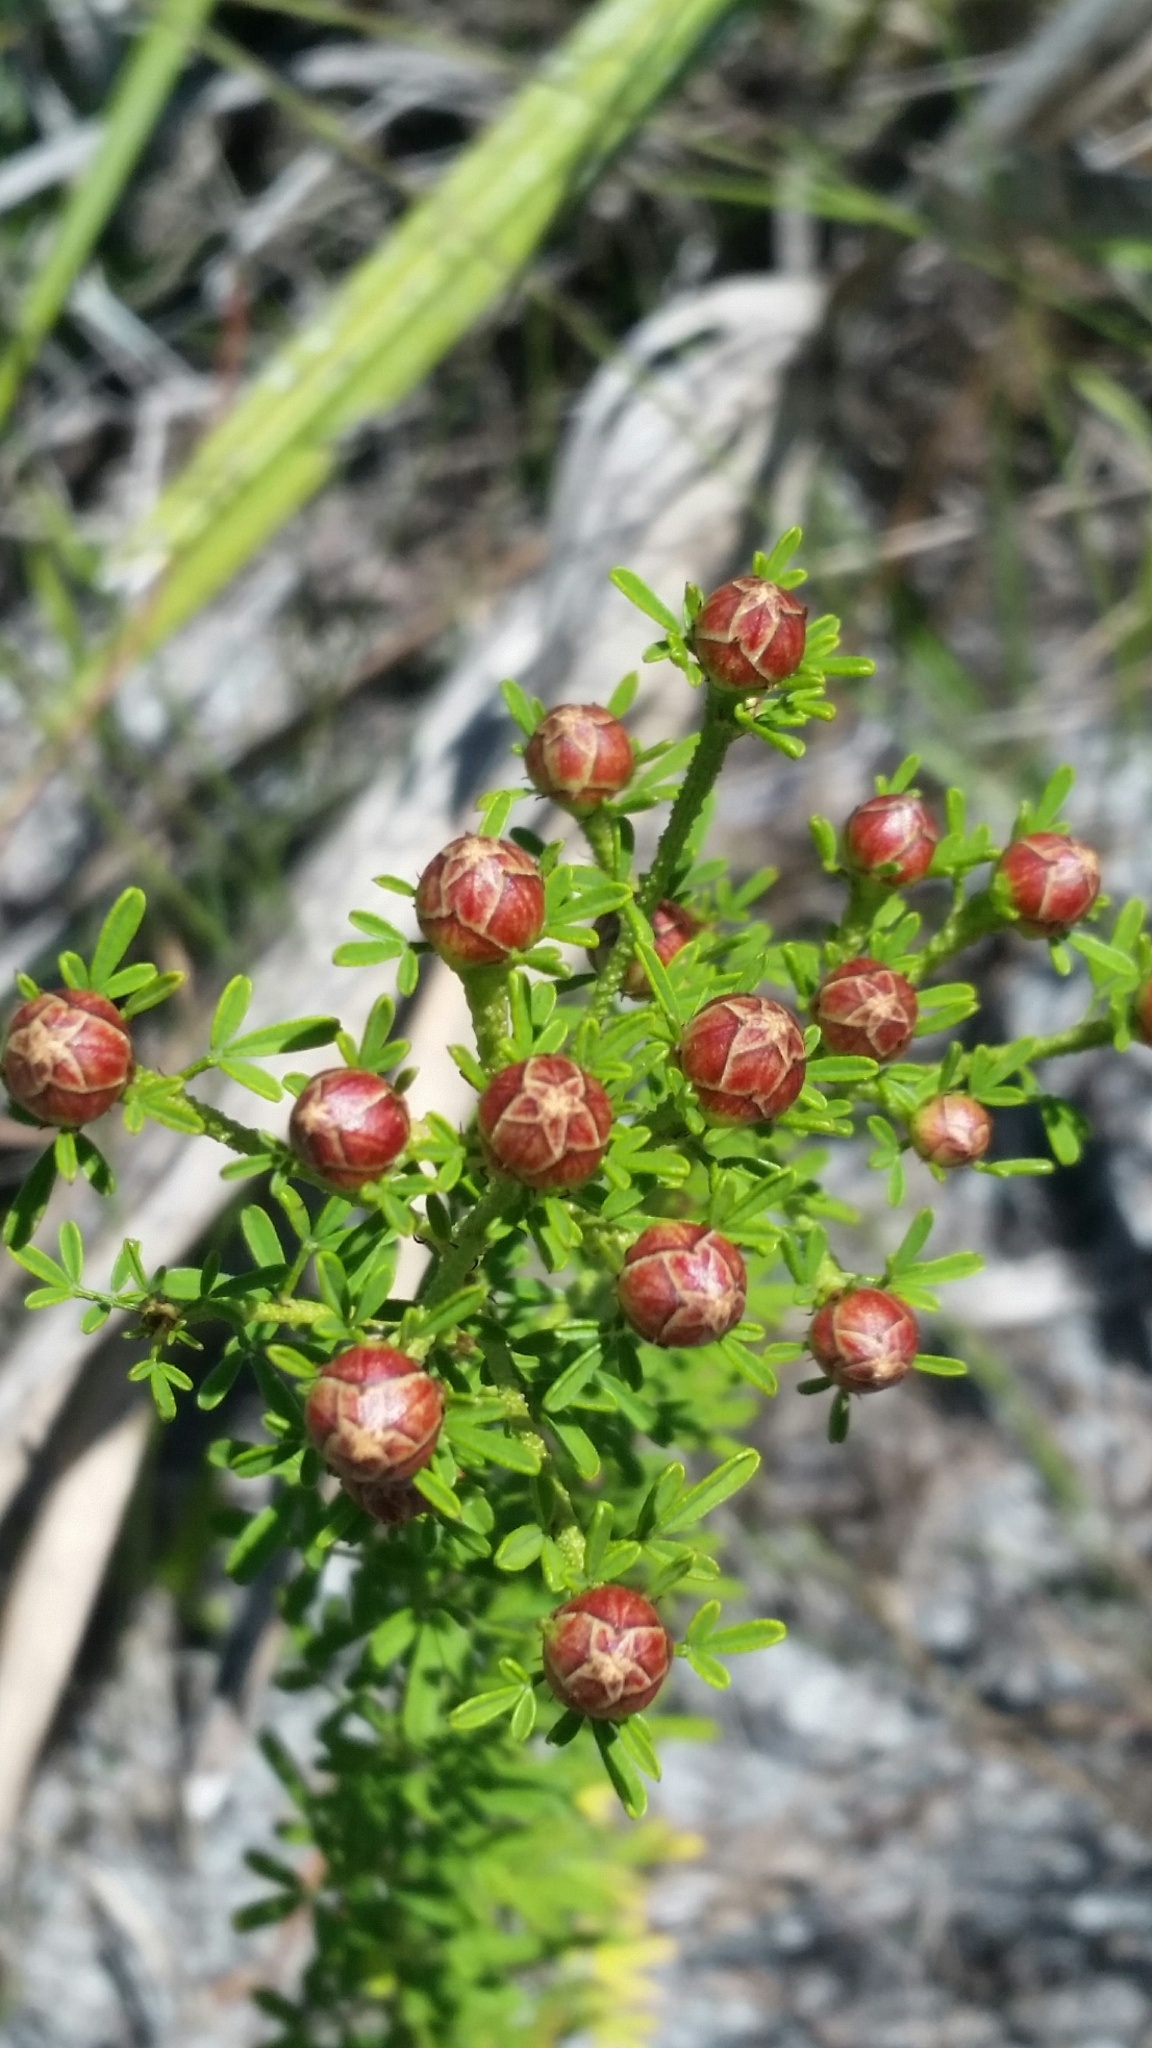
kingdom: Plantae
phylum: Tracheophyta
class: Magnoliopsida
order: Fabales
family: Fabaceae
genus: Dalea
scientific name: Dalea pinnata
